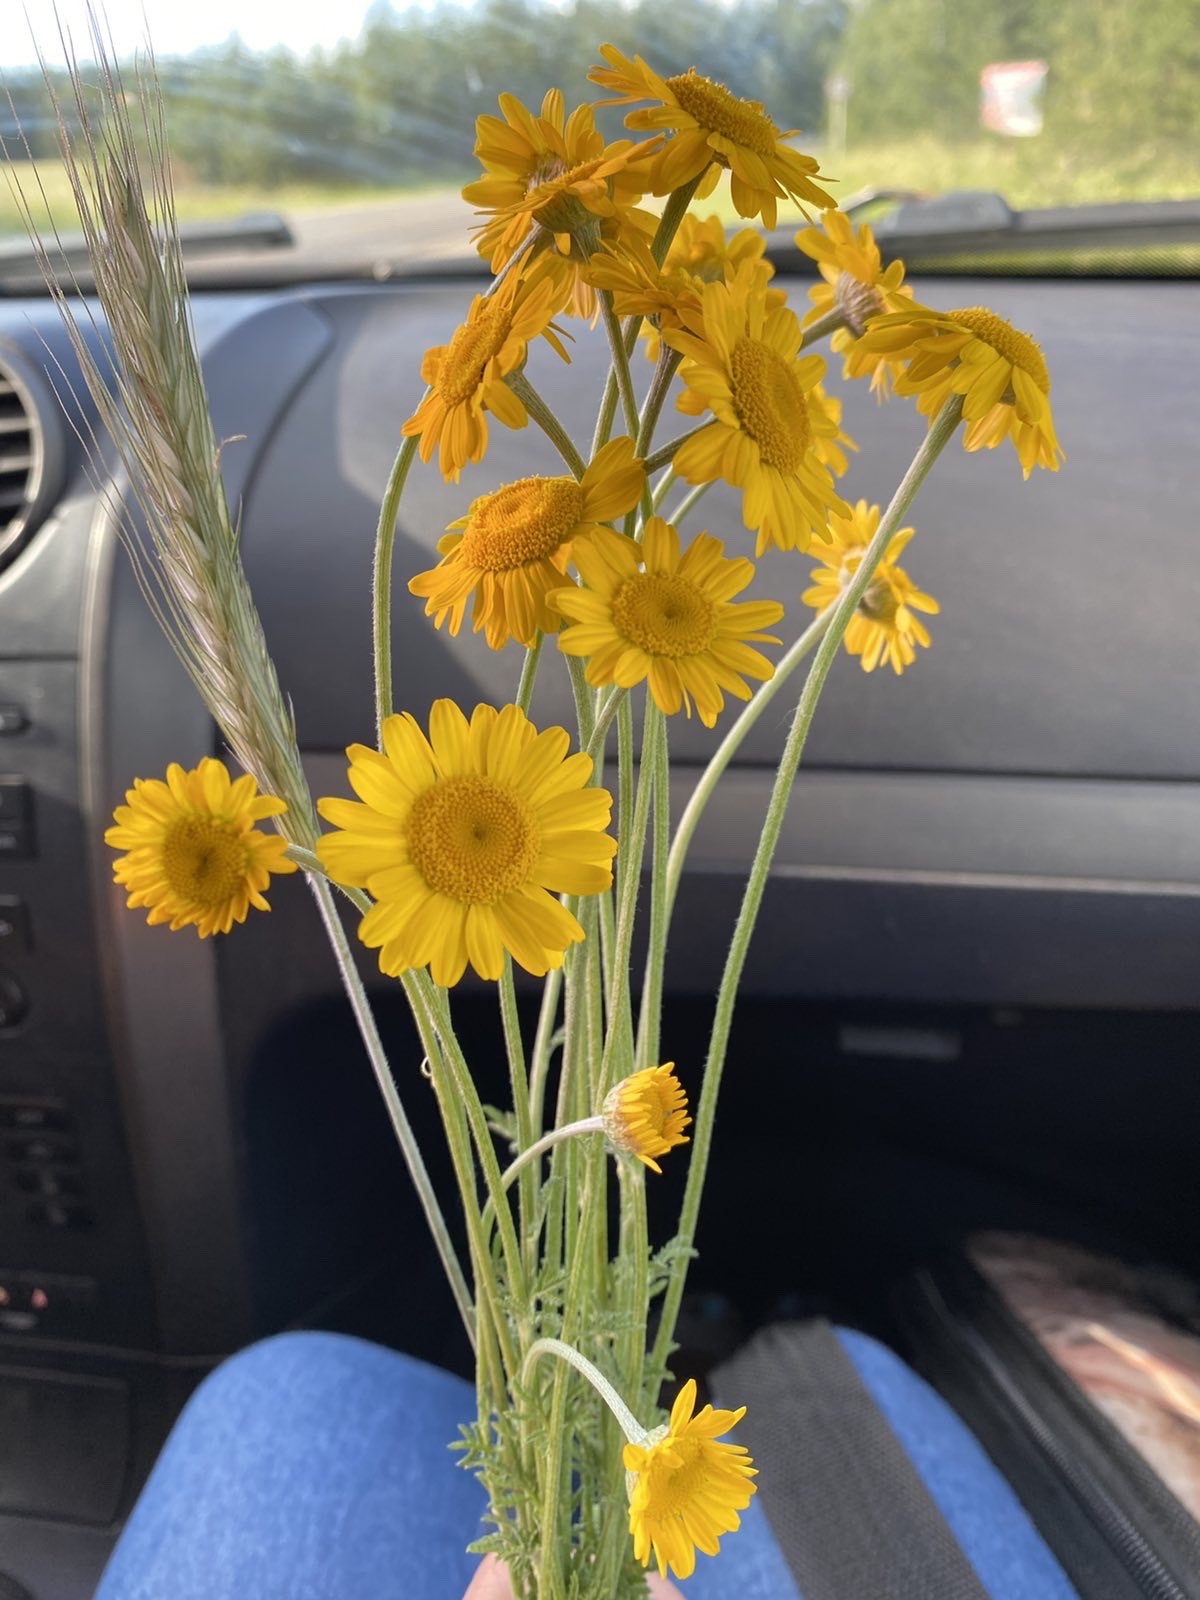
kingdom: Plantae
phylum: Tracheophyta
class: Magnoliopsida
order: Asterales
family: Asteraceae
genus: Cota
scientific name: Cota tinctoria
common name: Golden chamomile
